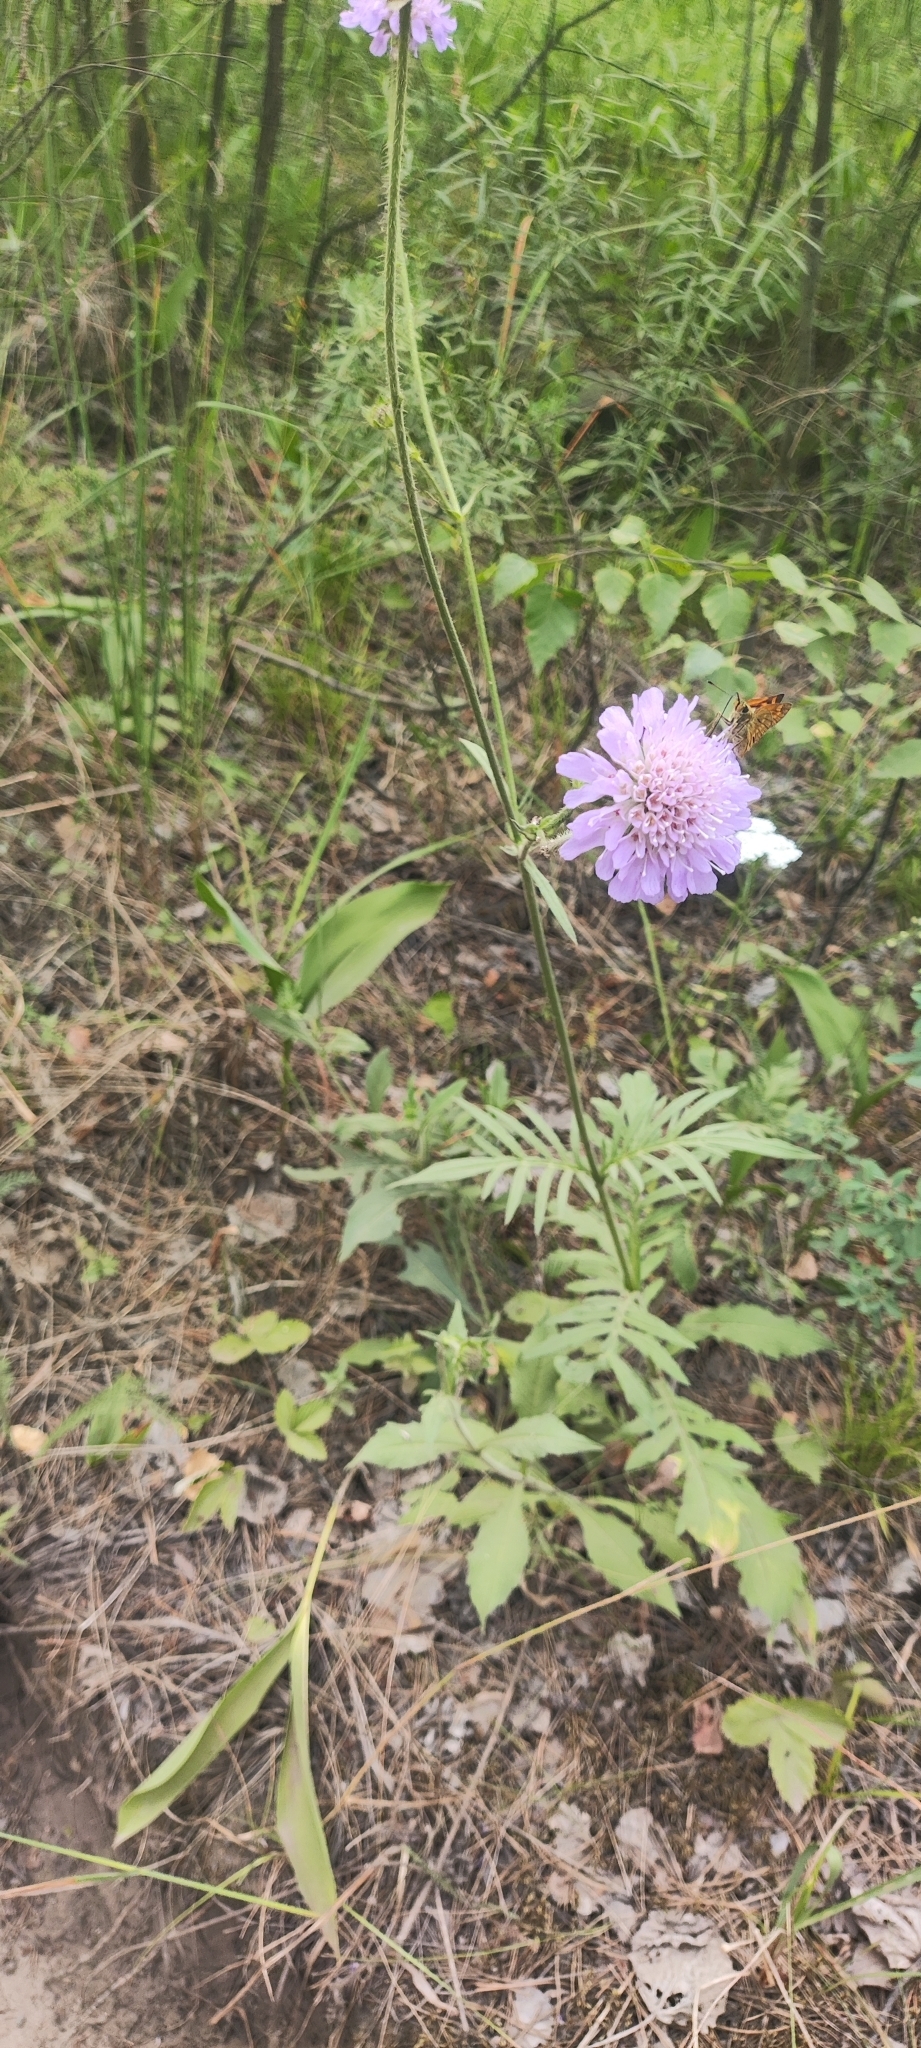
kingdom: Plantae
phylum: Tracheophyta
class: Magnoliopsida
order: Dipsacales
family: Caprifoliaceae
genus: Knautia
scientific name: Knautia arvensis
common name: Field scabiosa
